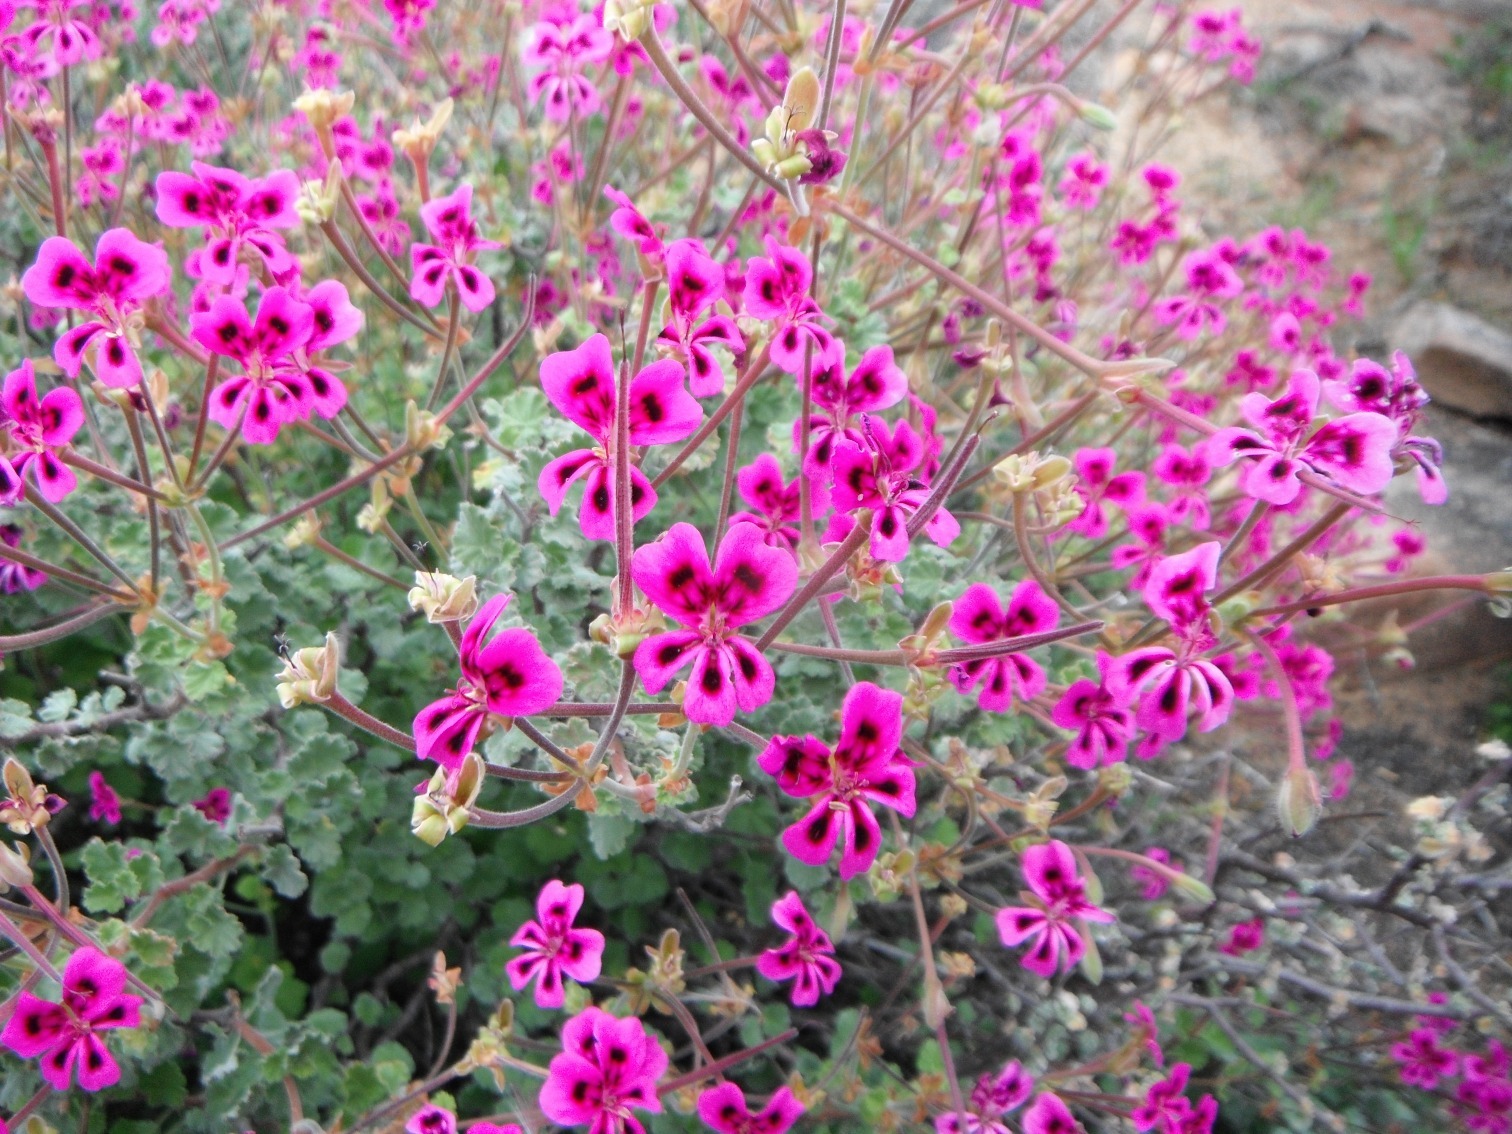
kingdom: Plantae
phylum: Tracheophyta
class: Magnoliopsida
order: Geraniales
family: Geraniaceae
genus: Pelargonium
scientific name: Pelargonium magenteum
